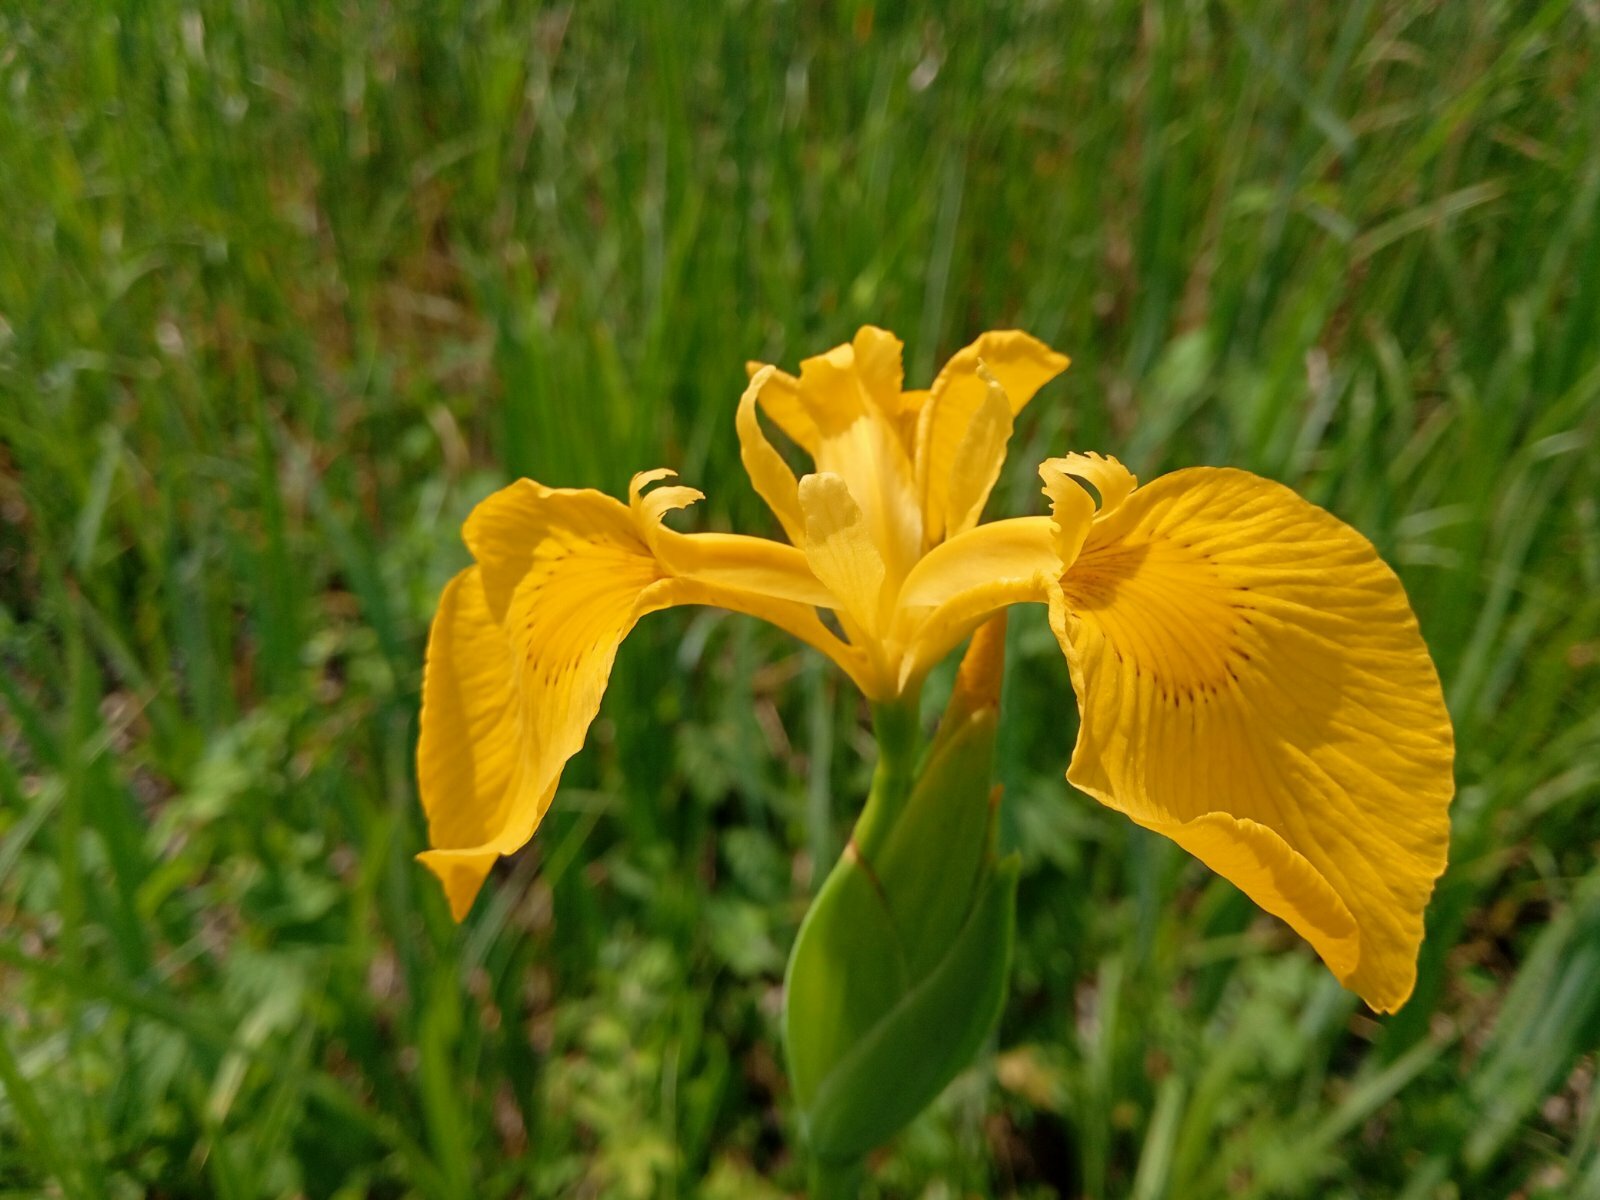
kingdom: Plantae
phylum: Tracheophyta
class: Liliopsida
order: Asparagales
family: Iridaceae
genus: Iris
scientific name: Iris pseudacorus
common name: Yellow flag
